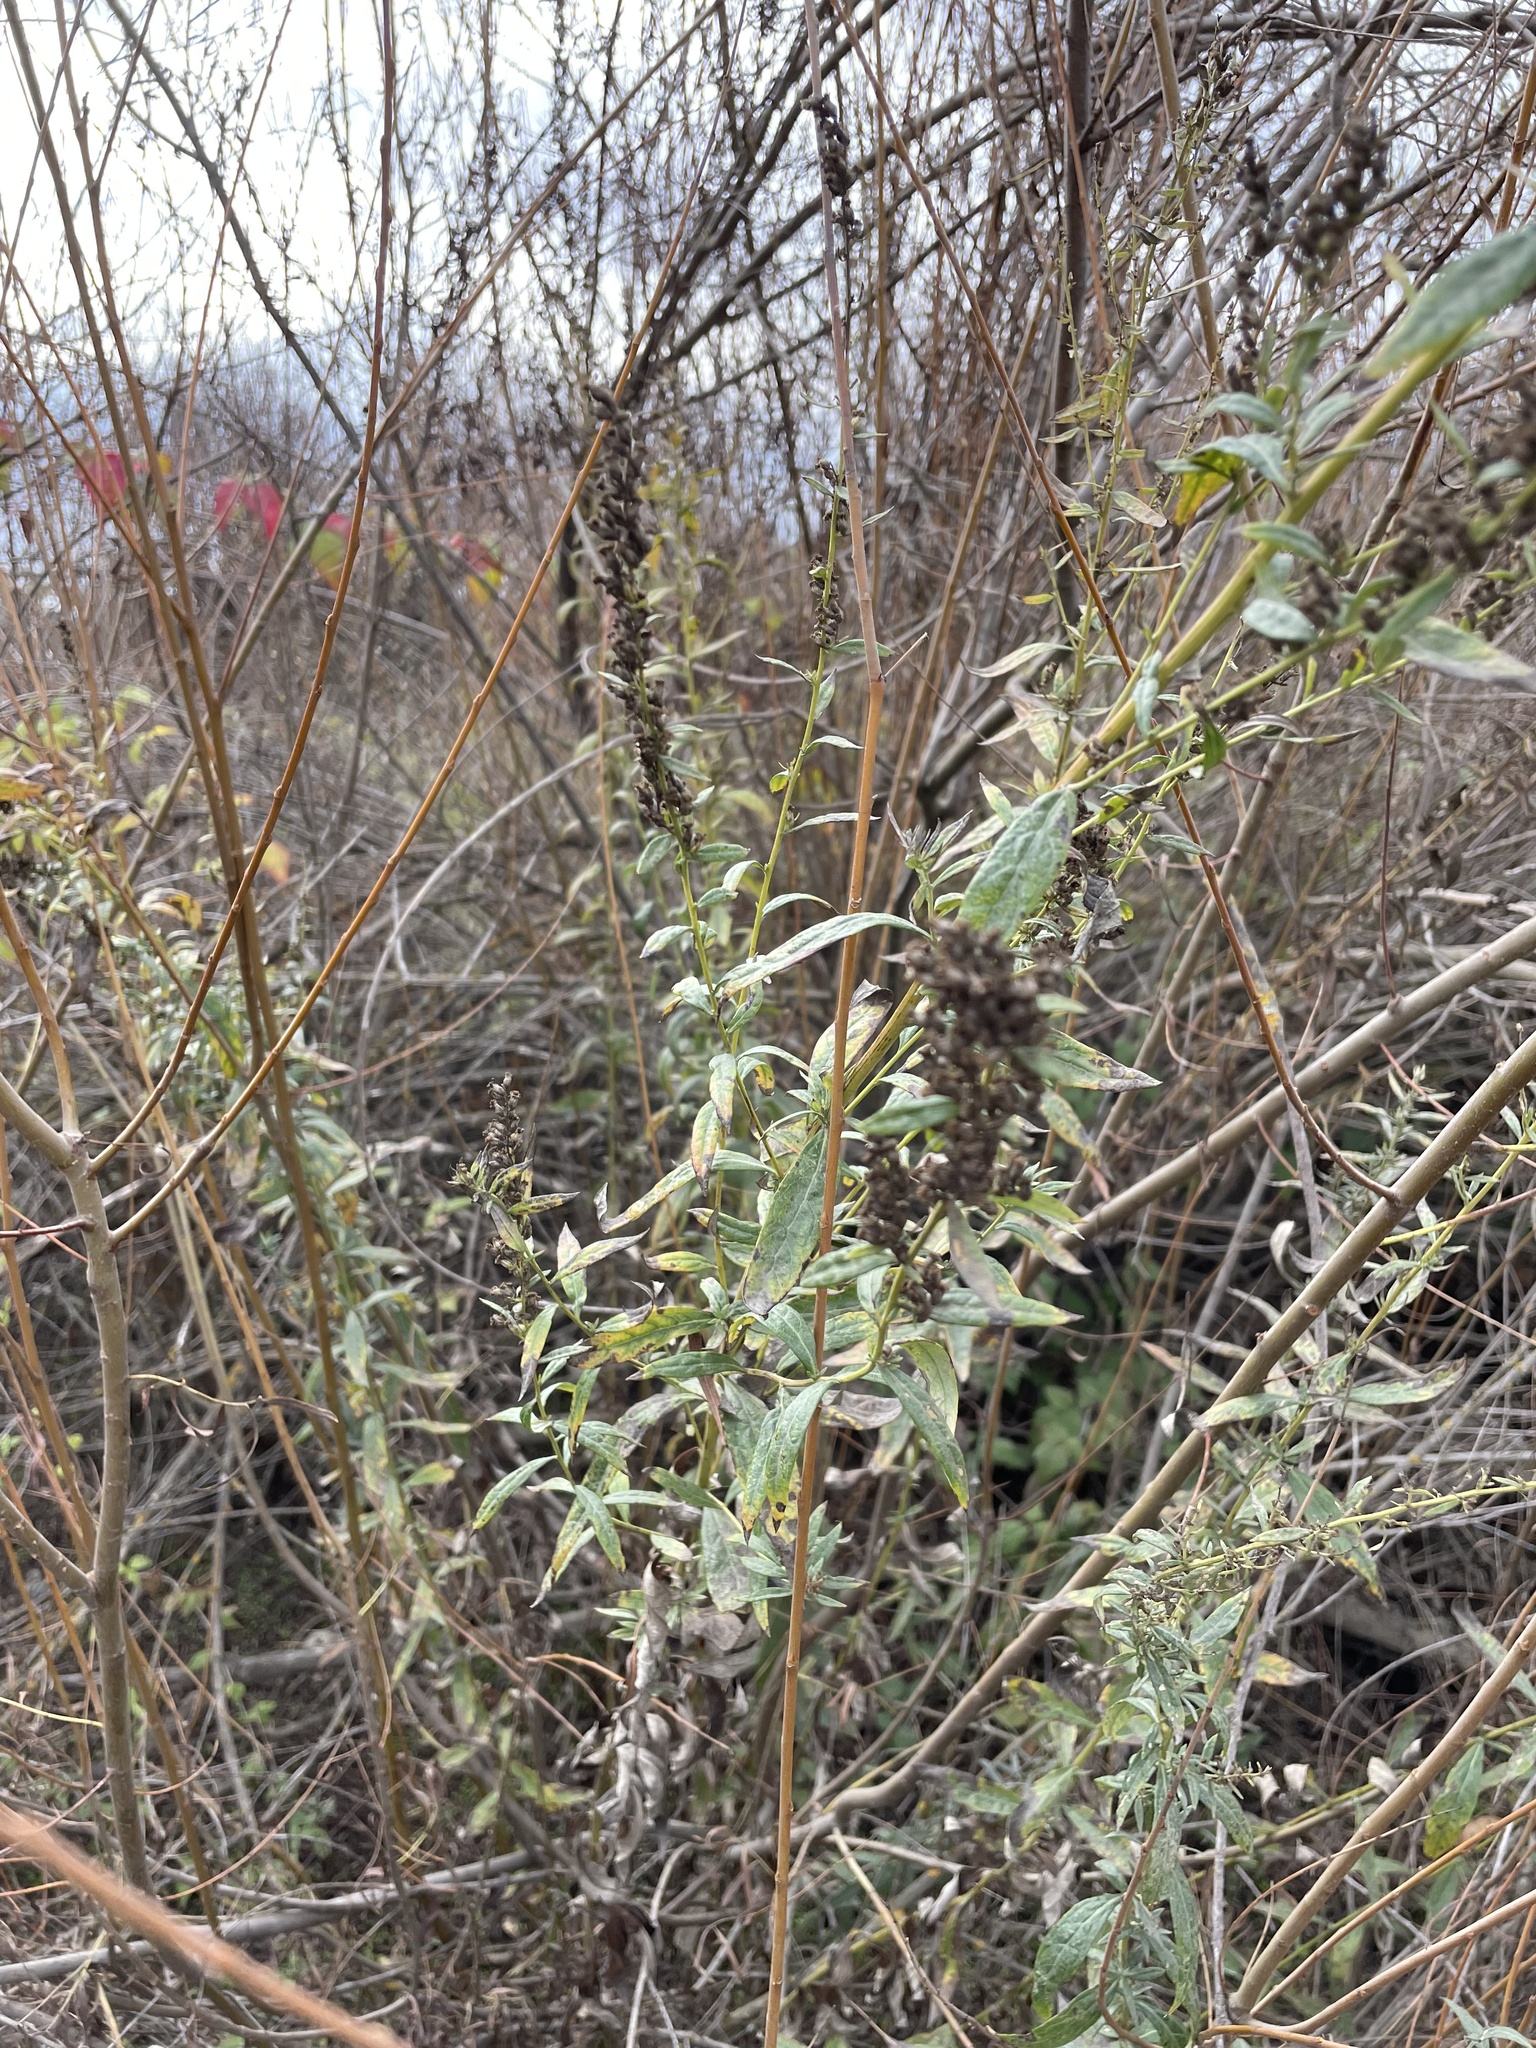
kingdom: Plantae
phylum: Tracheophyta
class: Magnoliopsida
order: Asterales
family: Asteraceae
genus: Artemisia
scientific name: Artemisia douglasiana
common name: Northwest mugwort
